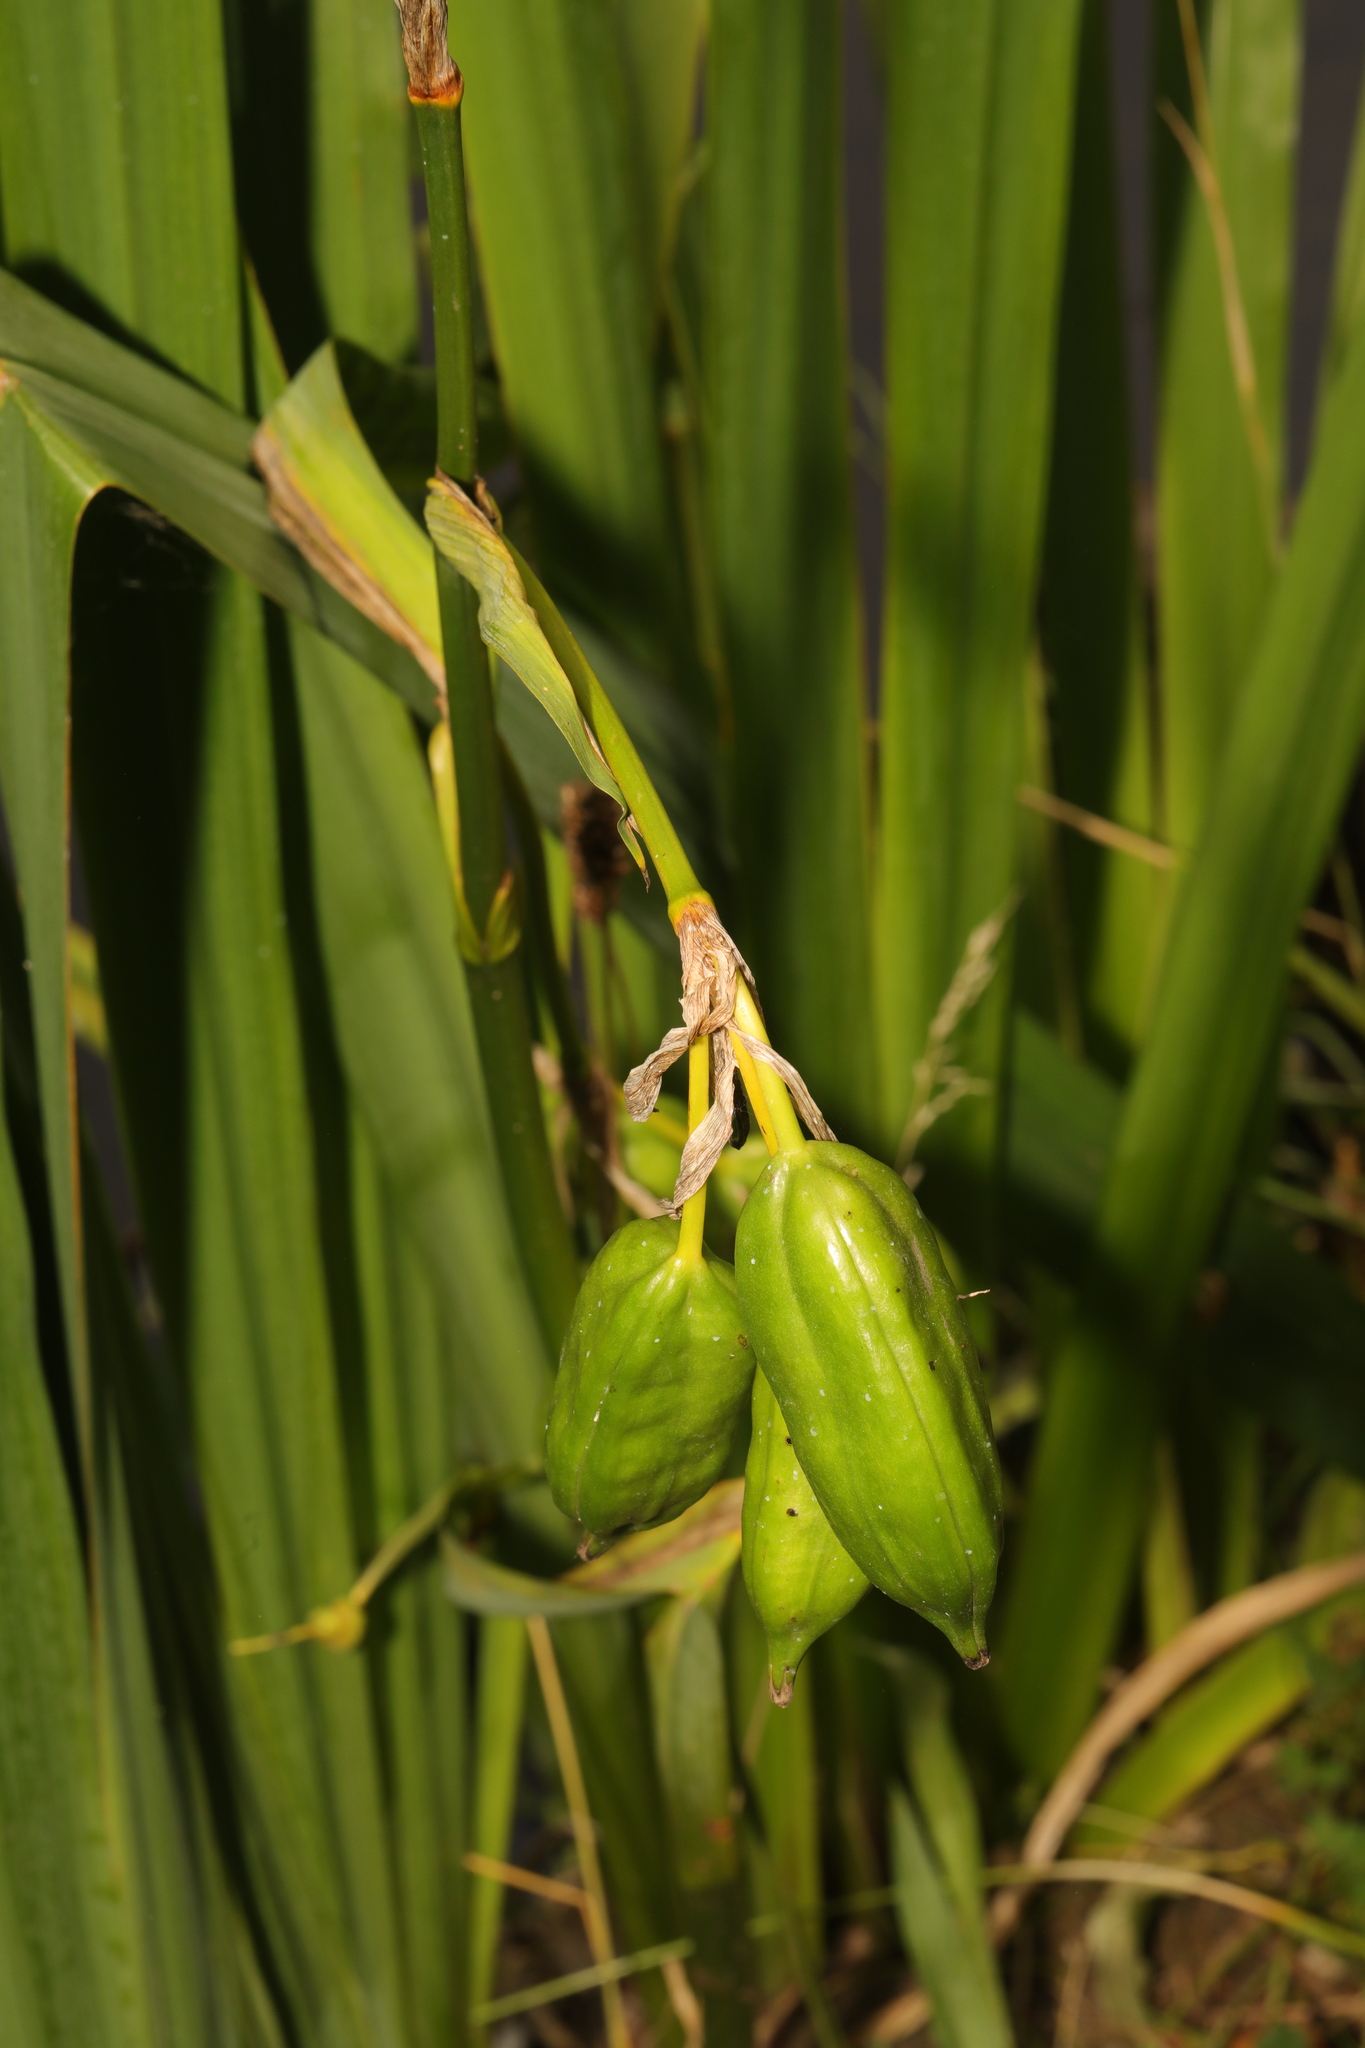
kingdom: Plantae
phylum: Tracheophyta
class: Liliopsida
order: Asparagales
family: Iridaceae
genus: Iris
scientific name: Iris pseudacorus
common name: Yellow flag
